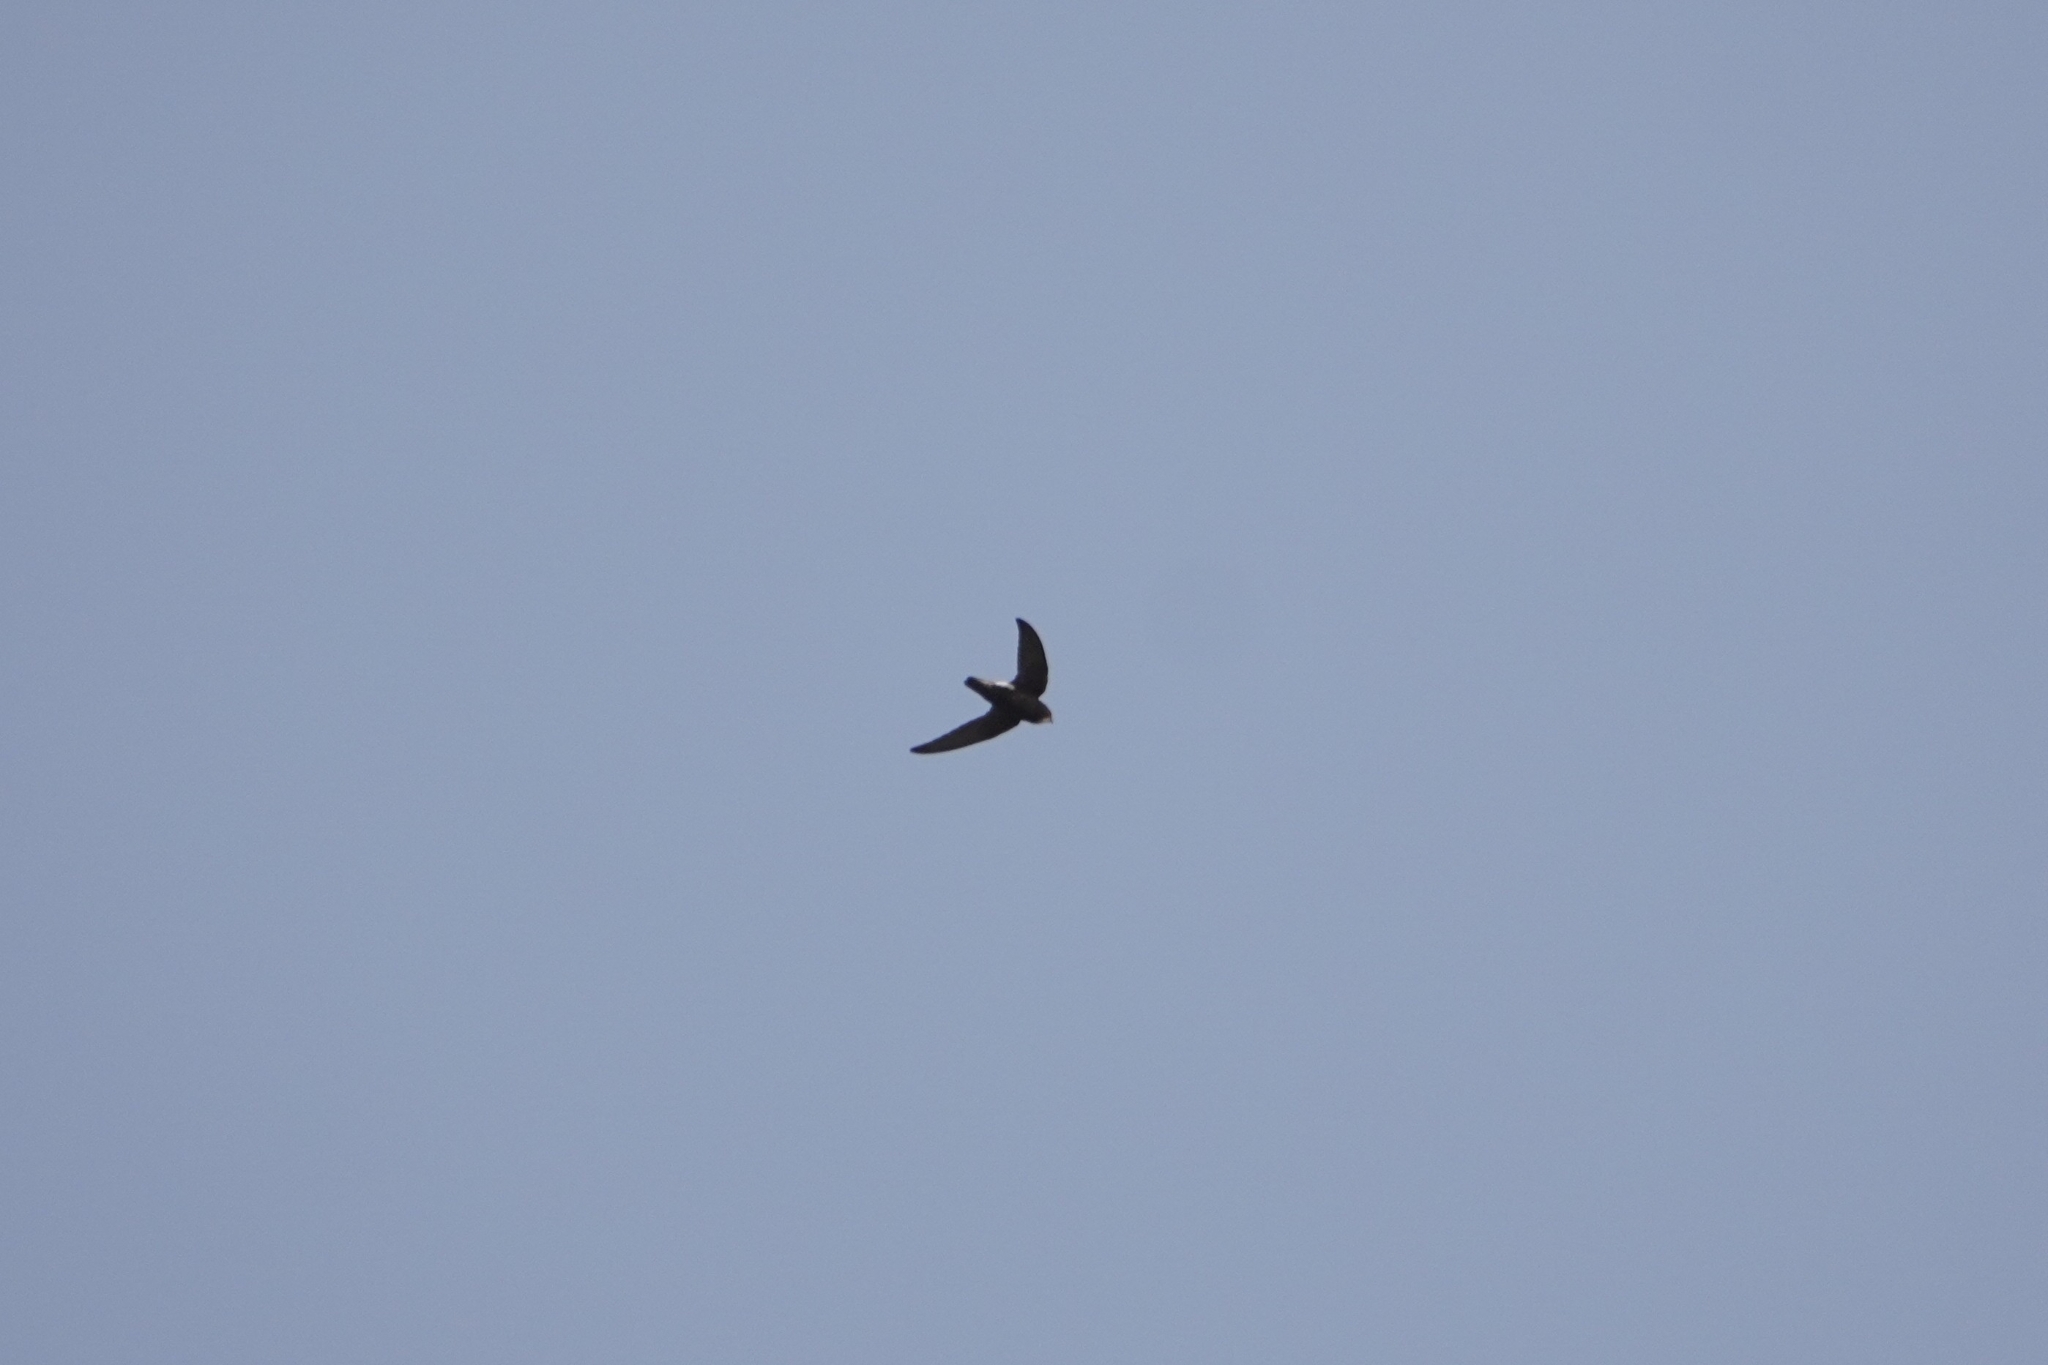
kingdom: Animalia
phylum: Chordata
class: Aves
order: Apodiformes
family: Apodidae
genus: Apus
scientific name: Apus affinis
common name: Little swift
